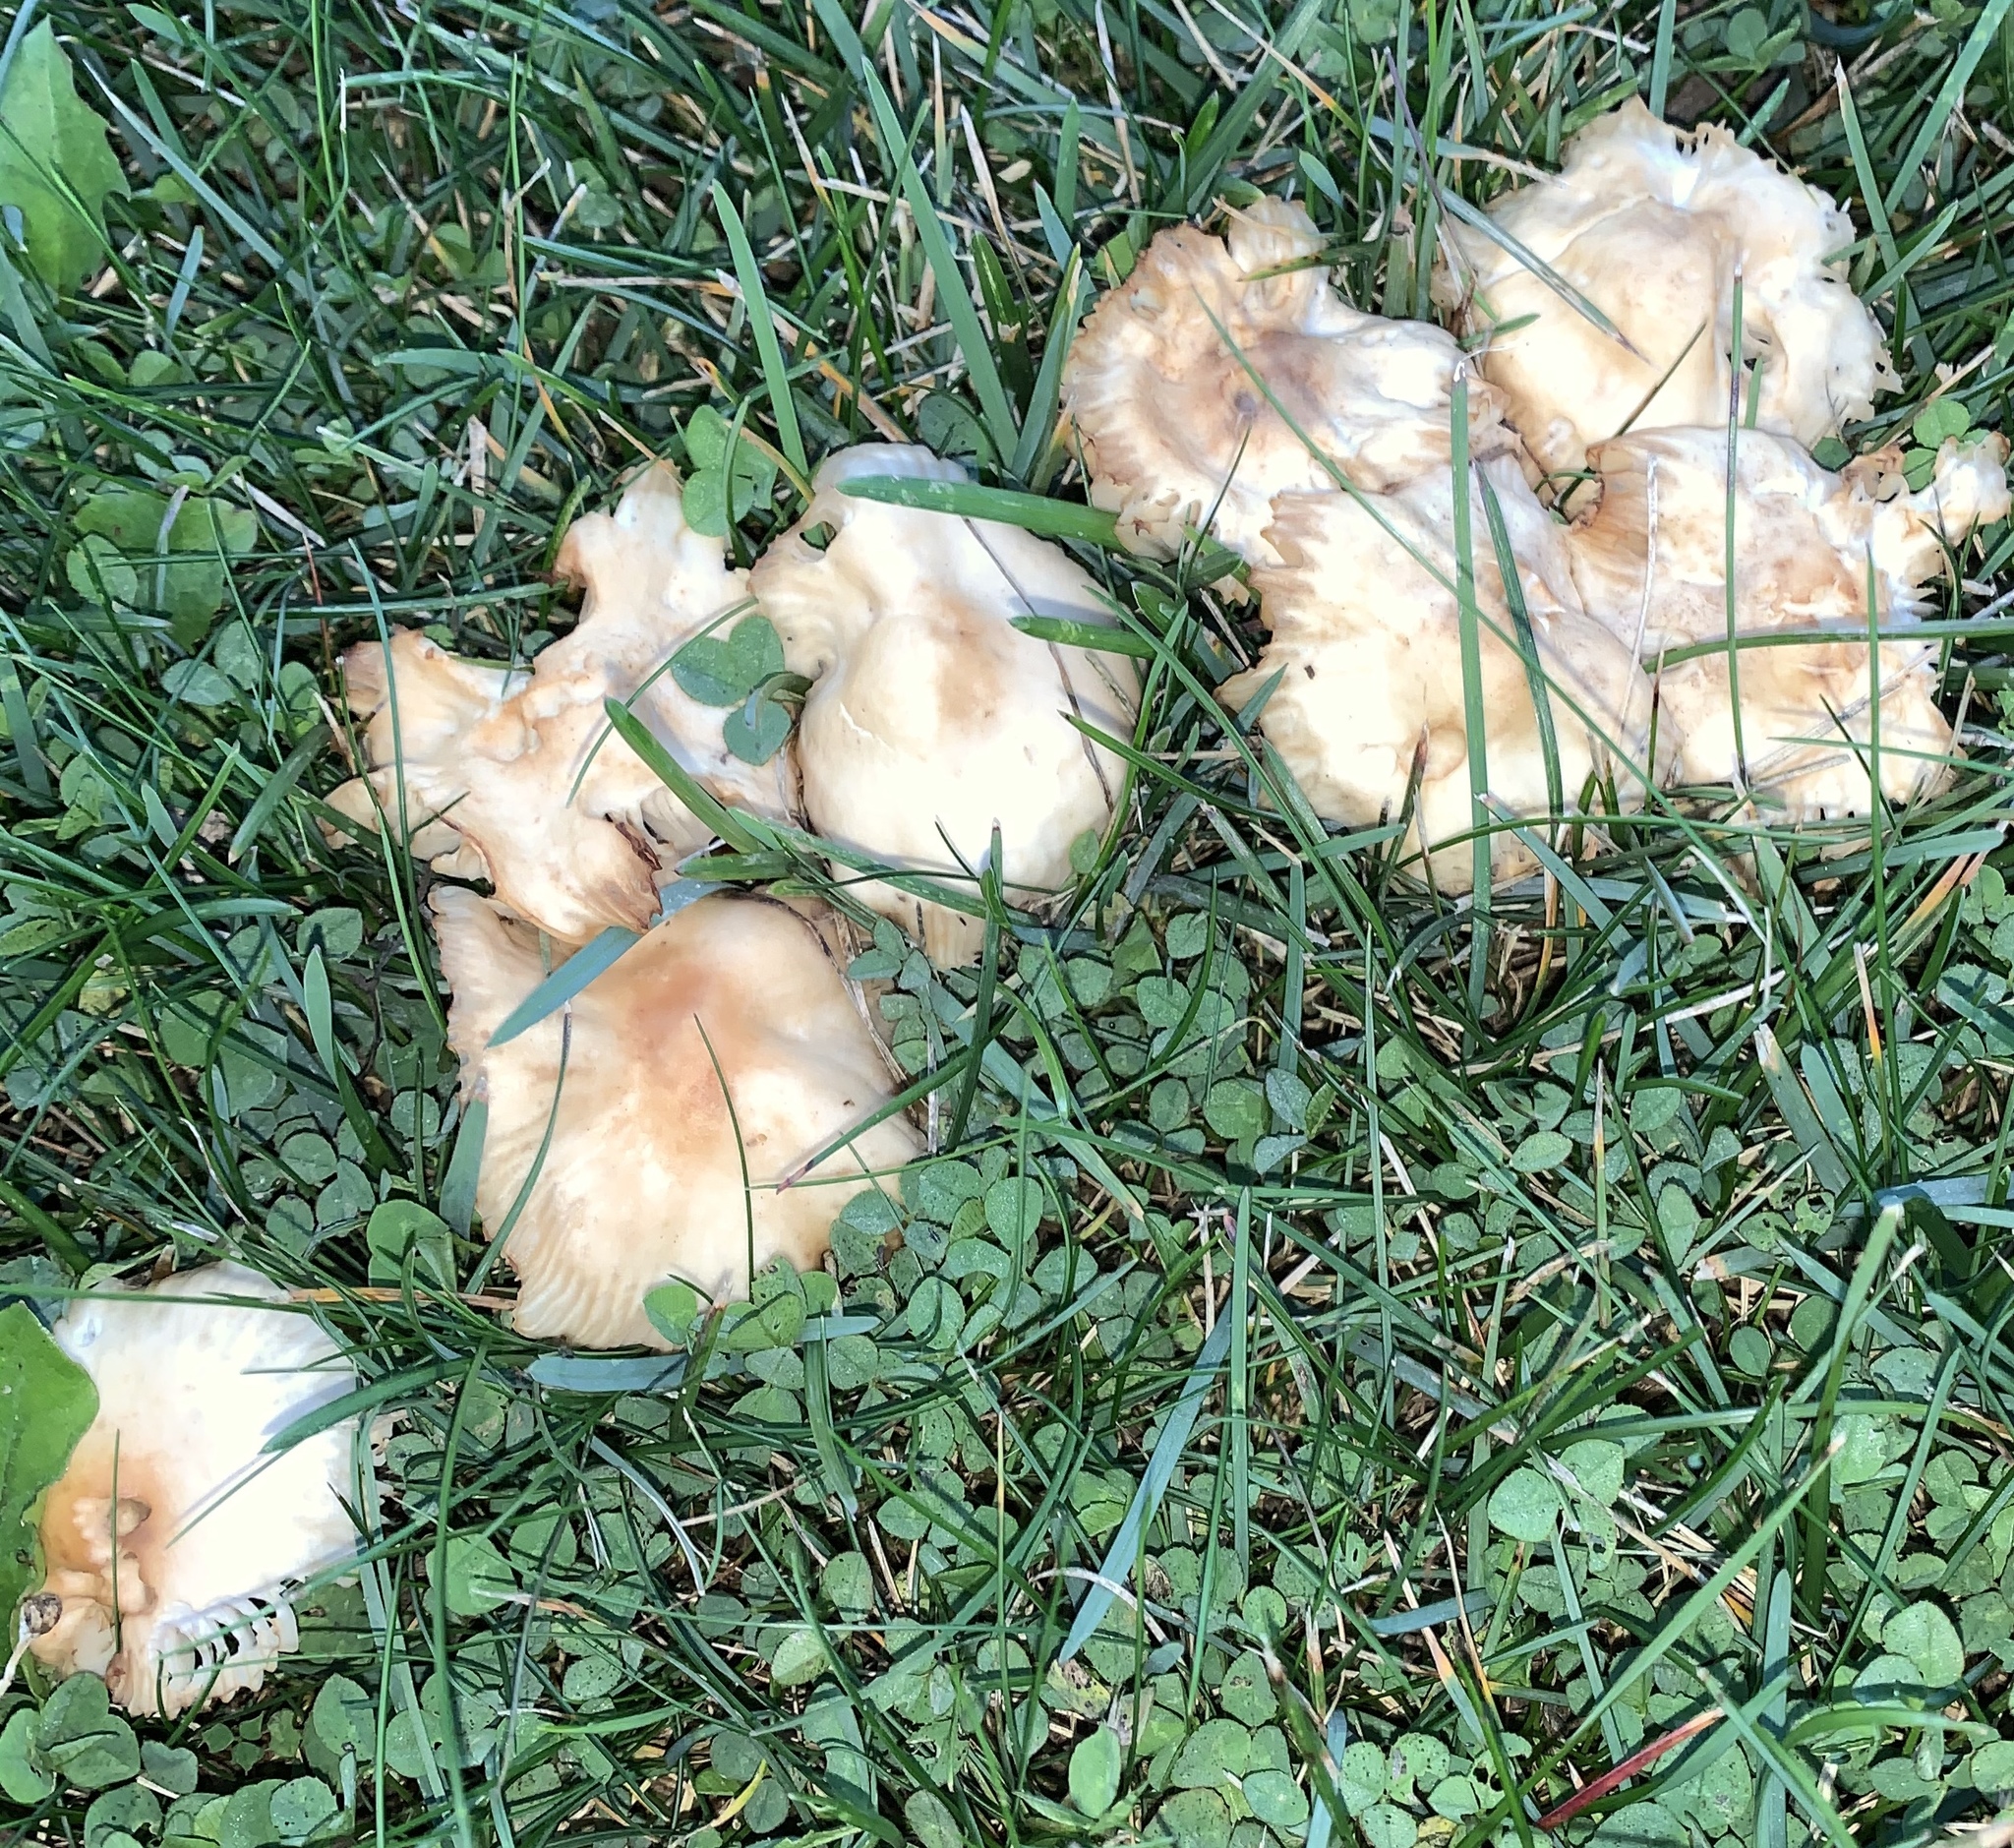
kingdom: Fungi
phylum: Basidiomycota
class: Agaricomycetes
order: Agaricales
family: Marasmiaceae
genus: Marasmius
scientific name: Marasmius oreades
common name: Fairy ring champignon
